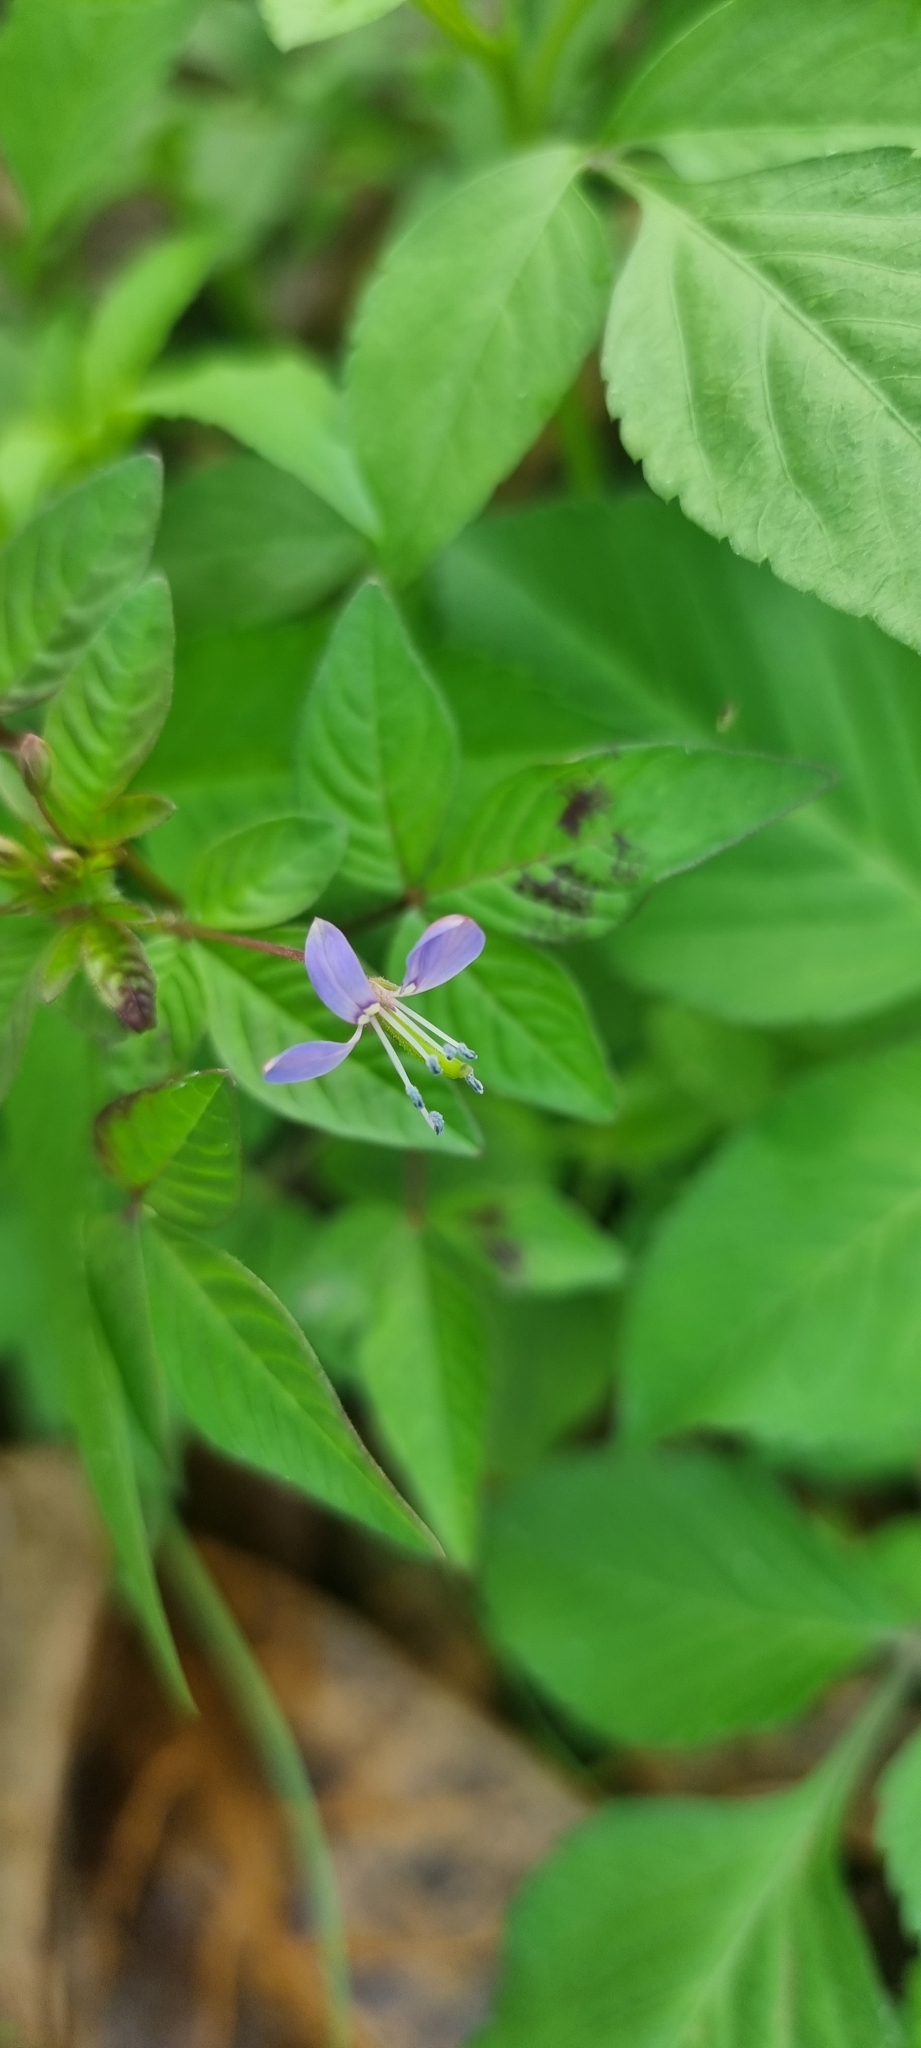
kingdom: Plantae
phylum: Tracheophyta
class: Magnoliopsida
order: Brassicales
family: Cleomaceae
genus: Sieruela
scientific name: Sieruela rutidosperma
